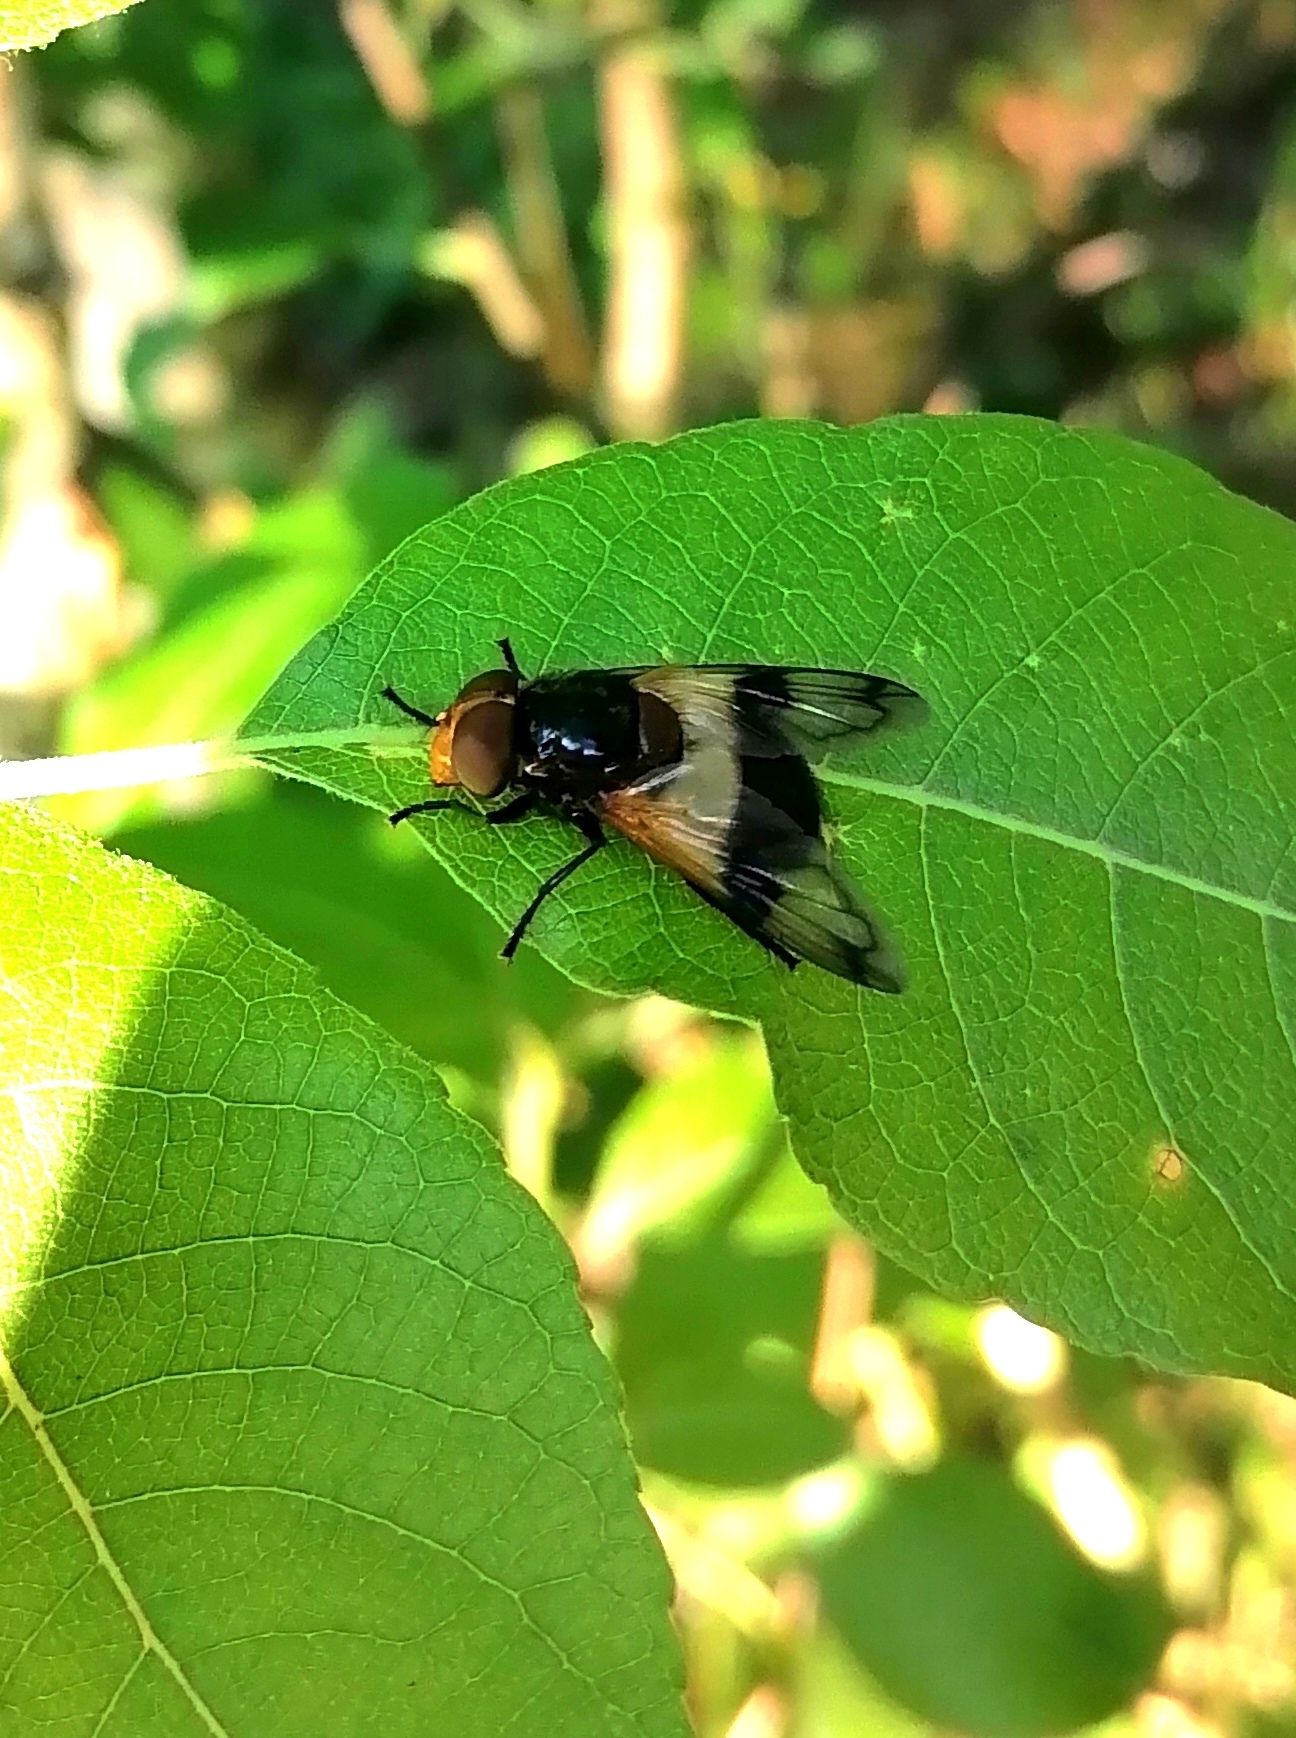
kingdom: Animalia
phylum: Arthropoda
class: Insecta
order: Diptera
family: Syrphidae
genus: Volucella
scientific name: Volucella pellucens
